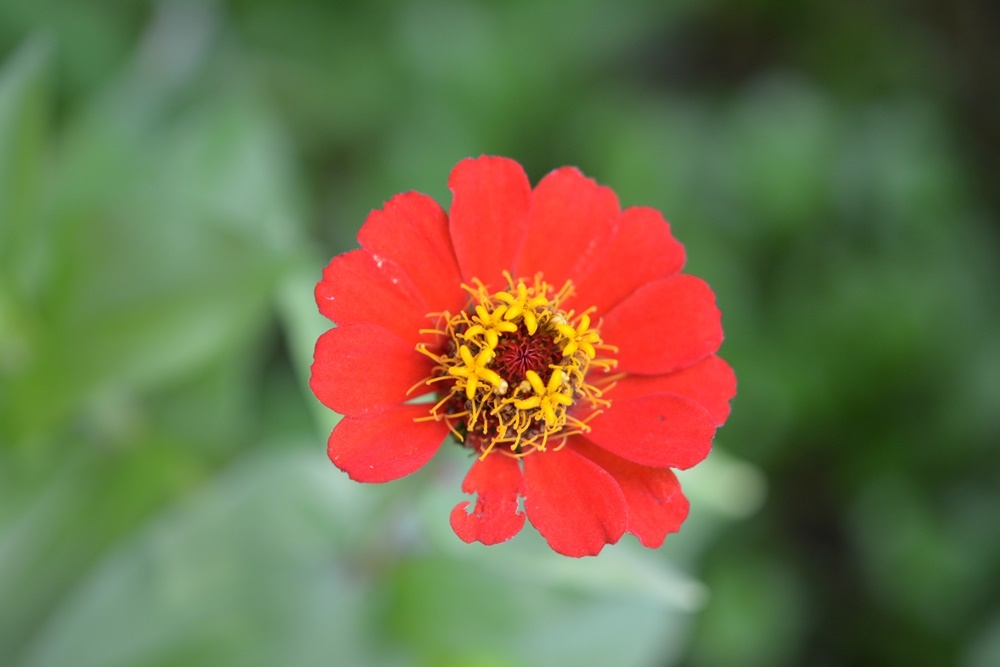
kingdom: Plantae
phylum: Tracheophyta
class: Magnoliopsida
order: Asterales
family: Asteraceae
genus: Zinnia
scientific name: Zinnia elegans
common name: Youth-and-age
